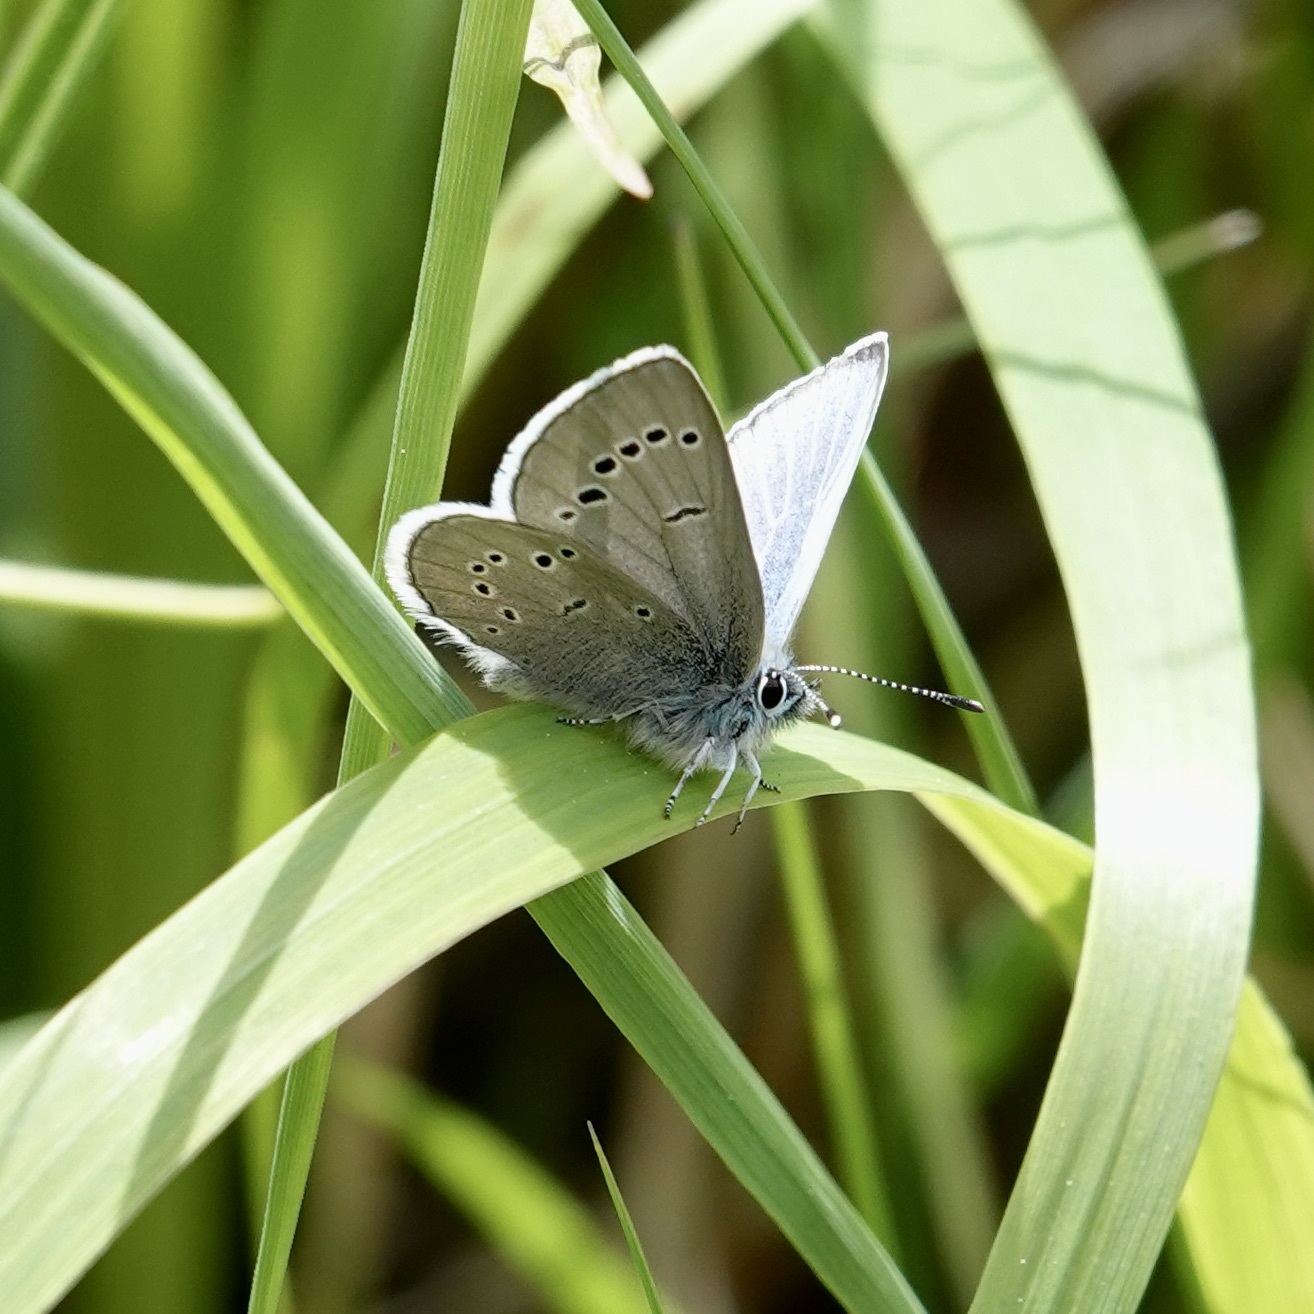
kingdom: Animalia
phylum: Arthropoda
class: Insecta
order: Lepidoptera
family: Lycaenidae
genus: Glaucopsyche
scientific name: Glaucopsyche lygdamus
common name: Silvery blue
